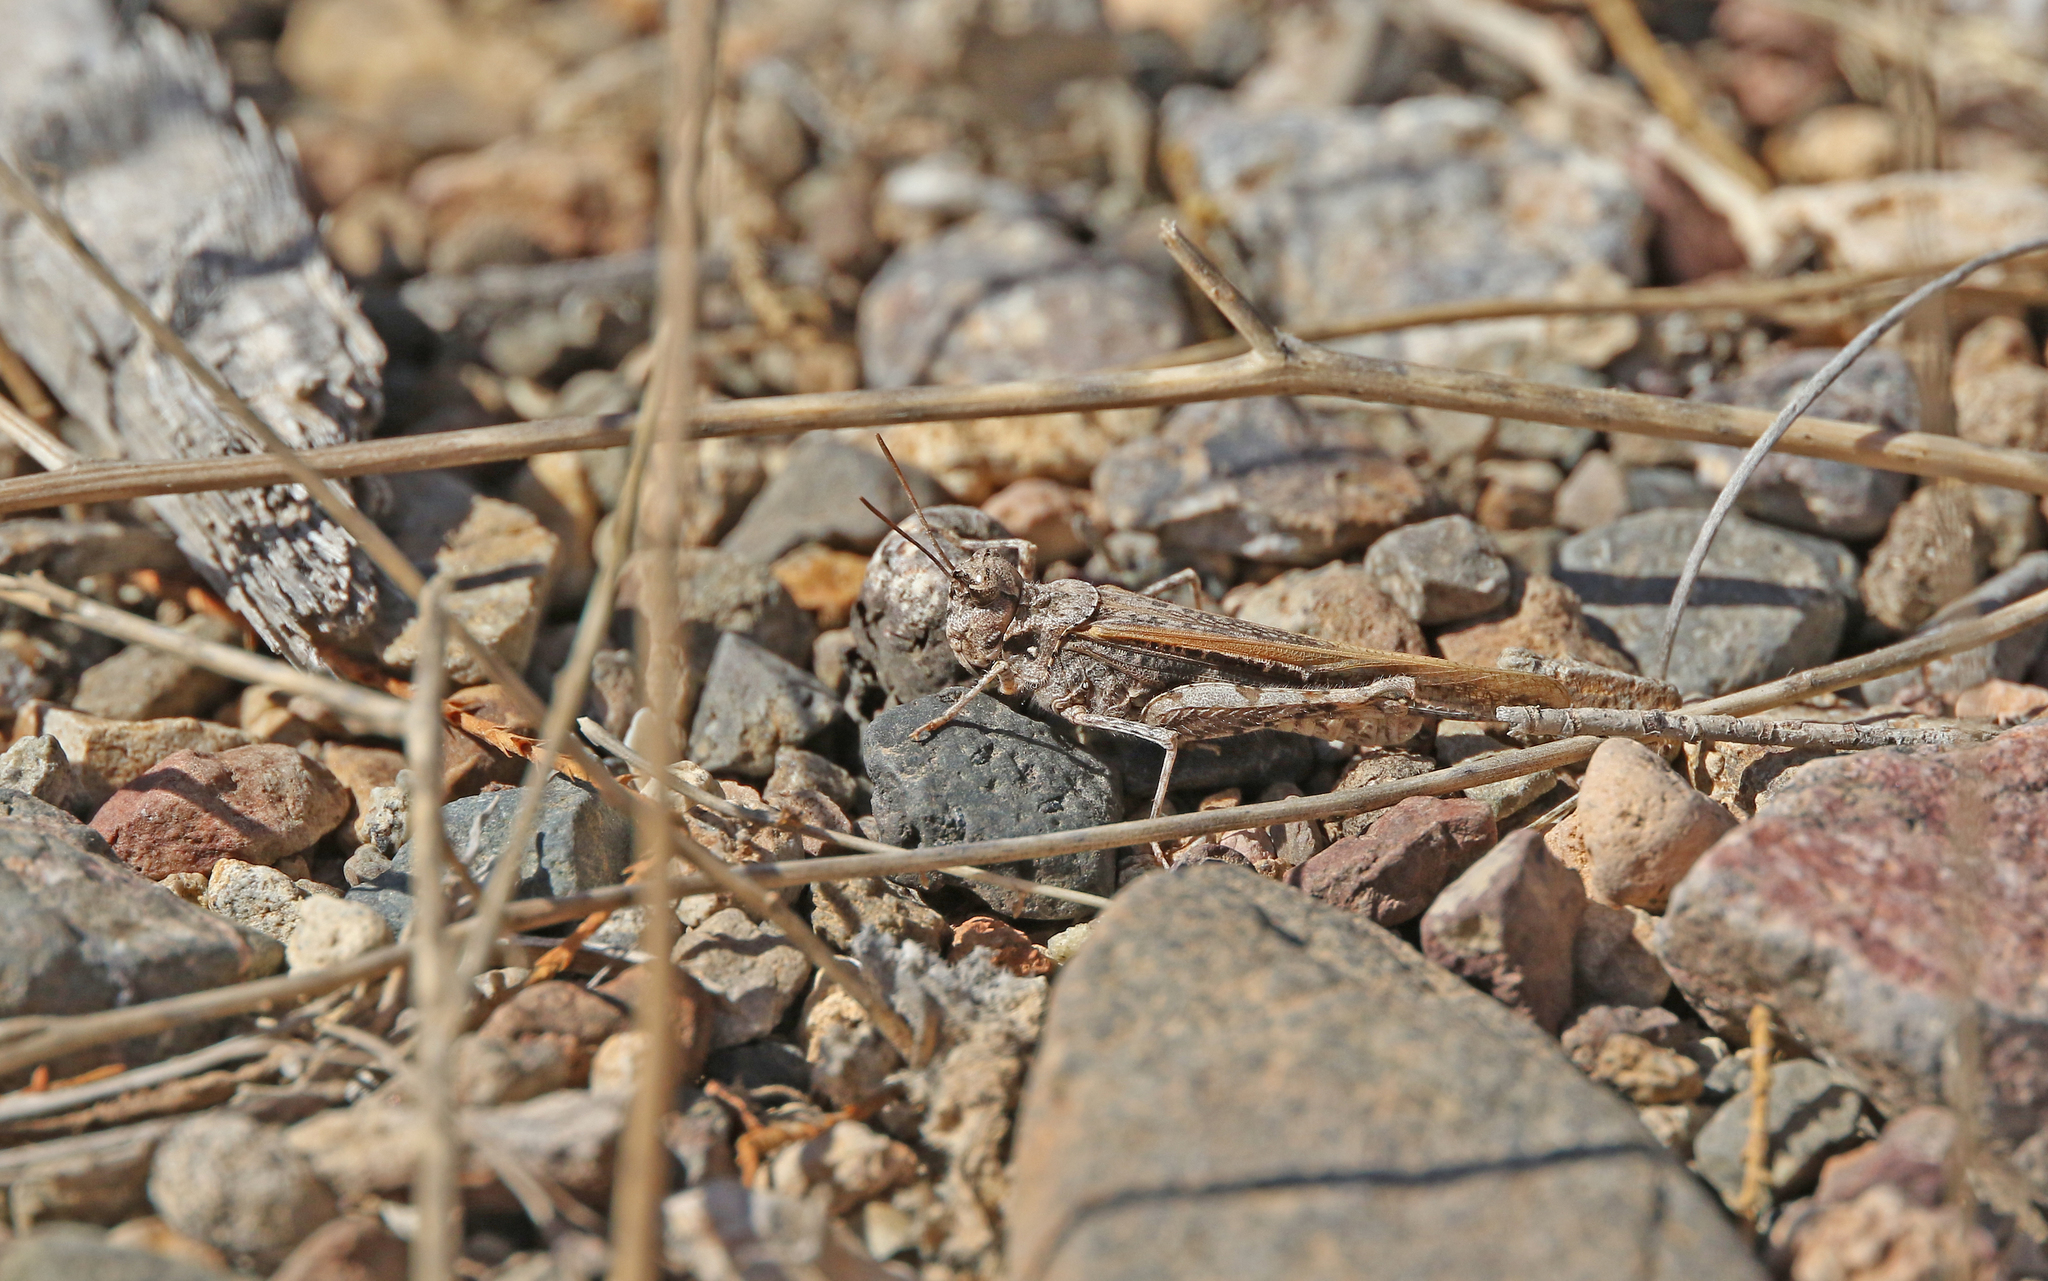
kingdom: Animalia
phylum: Arthropoda
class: Insecta
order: Orthoptera
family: Acrididae
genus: Acrotylus
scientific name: Acrotylus insubricus
